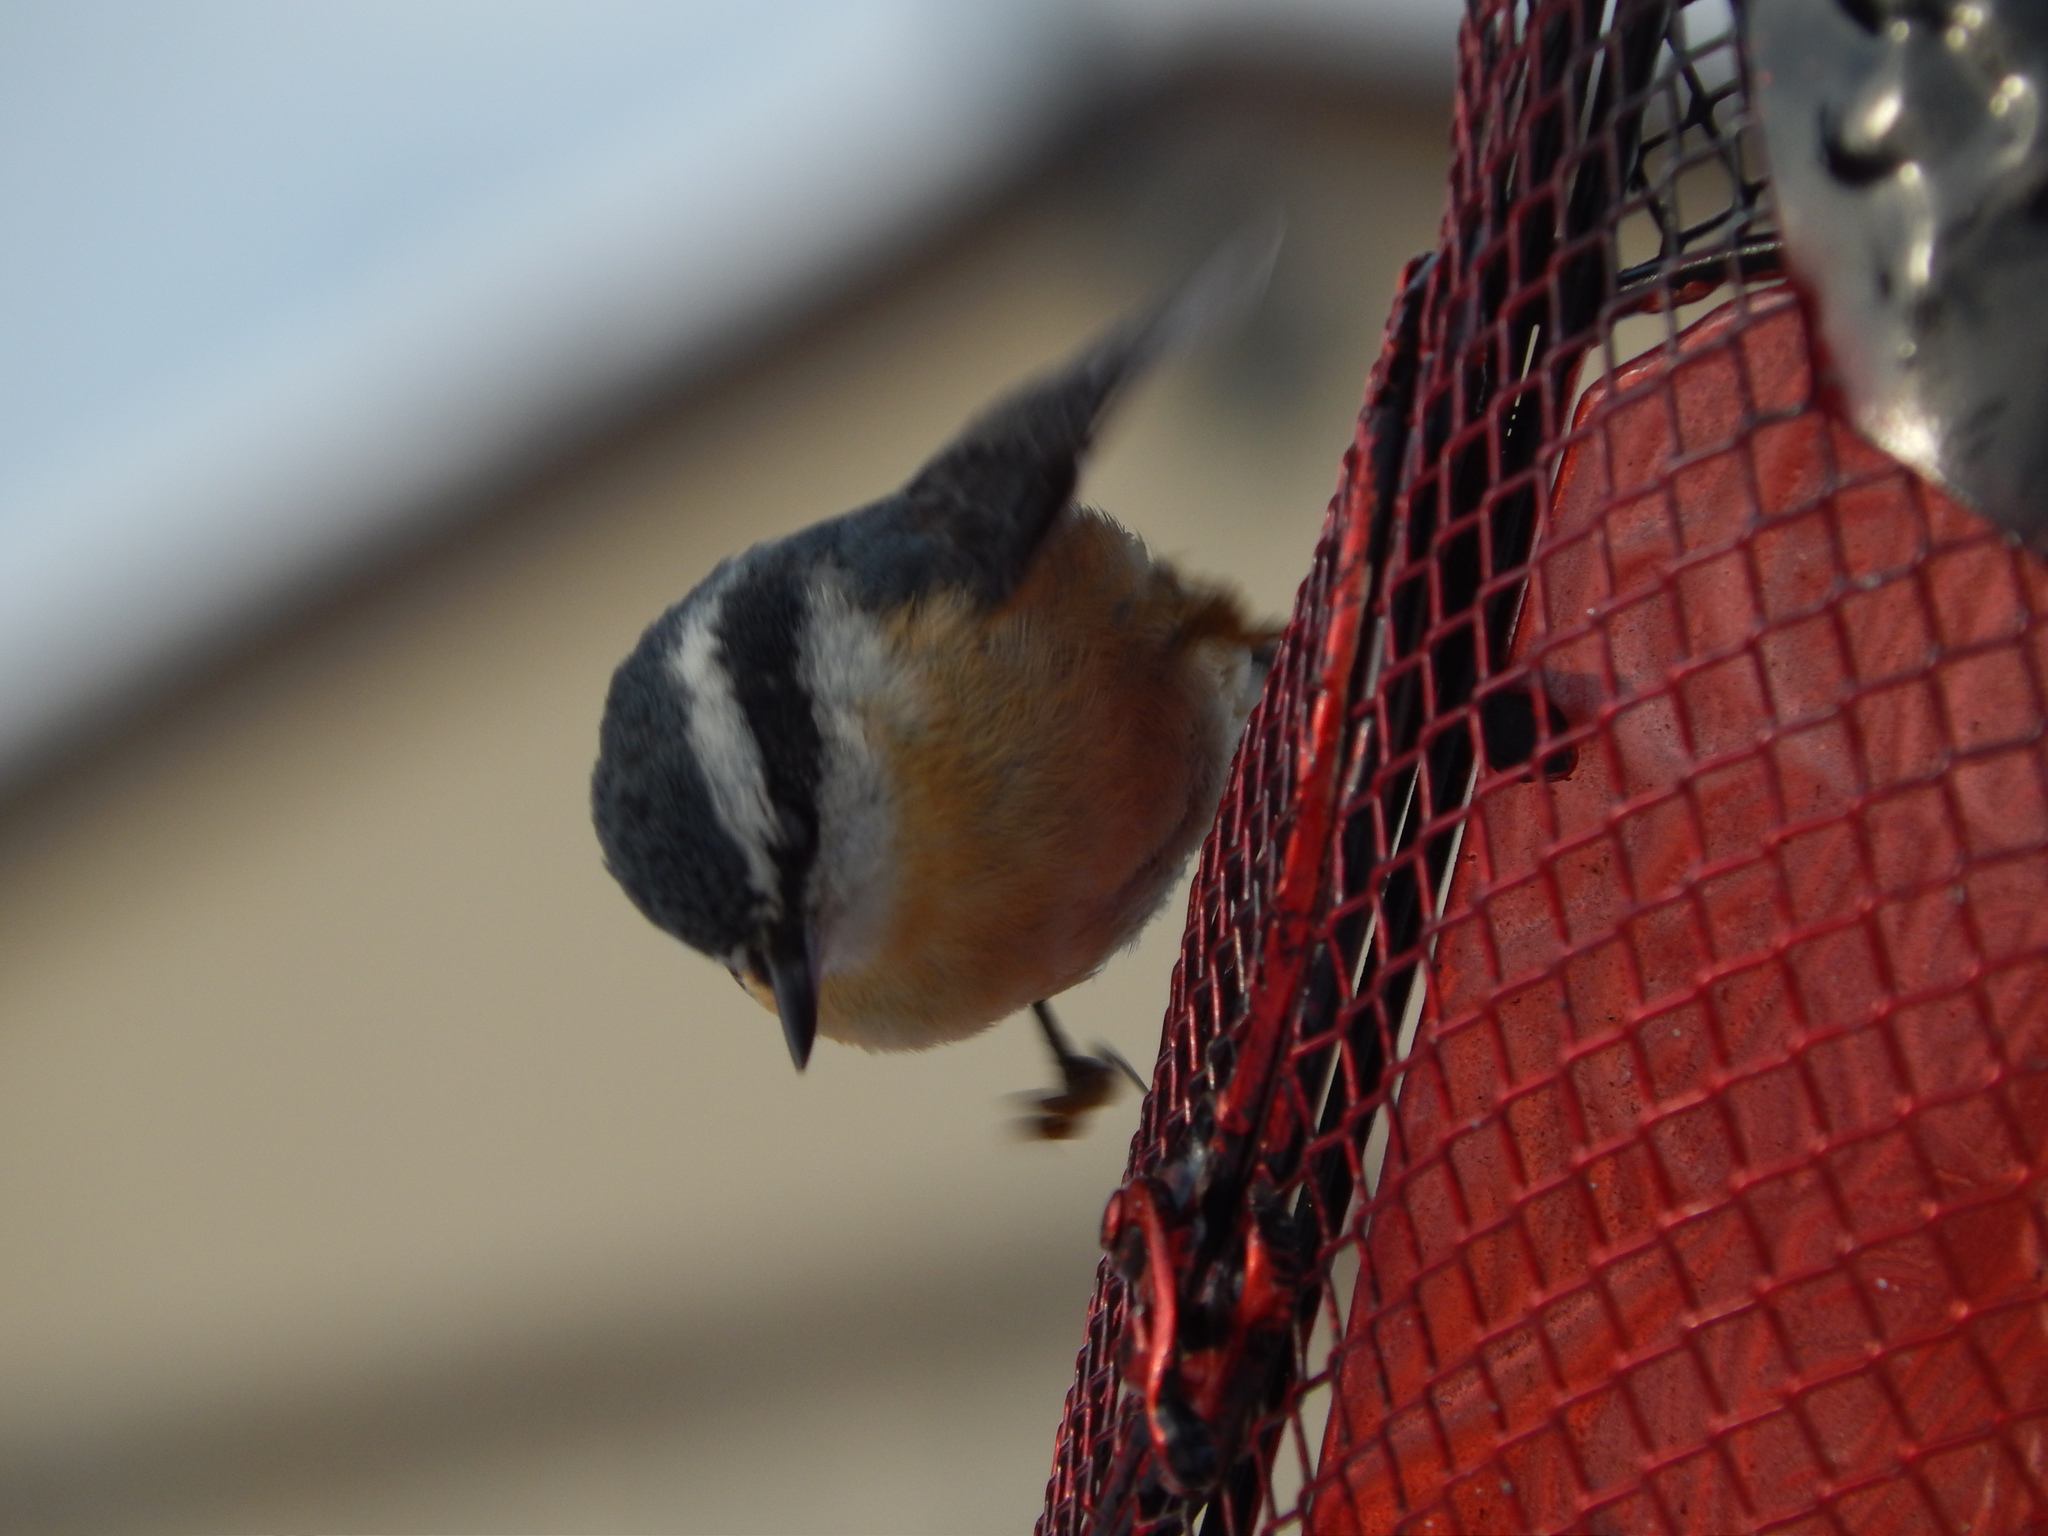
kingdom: Animalia
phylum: Chordata
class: Aves
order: Passeriformes
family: Sittidae
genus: Sitta
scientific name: Sitta canadensis
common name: Red-breasted nuthatch
